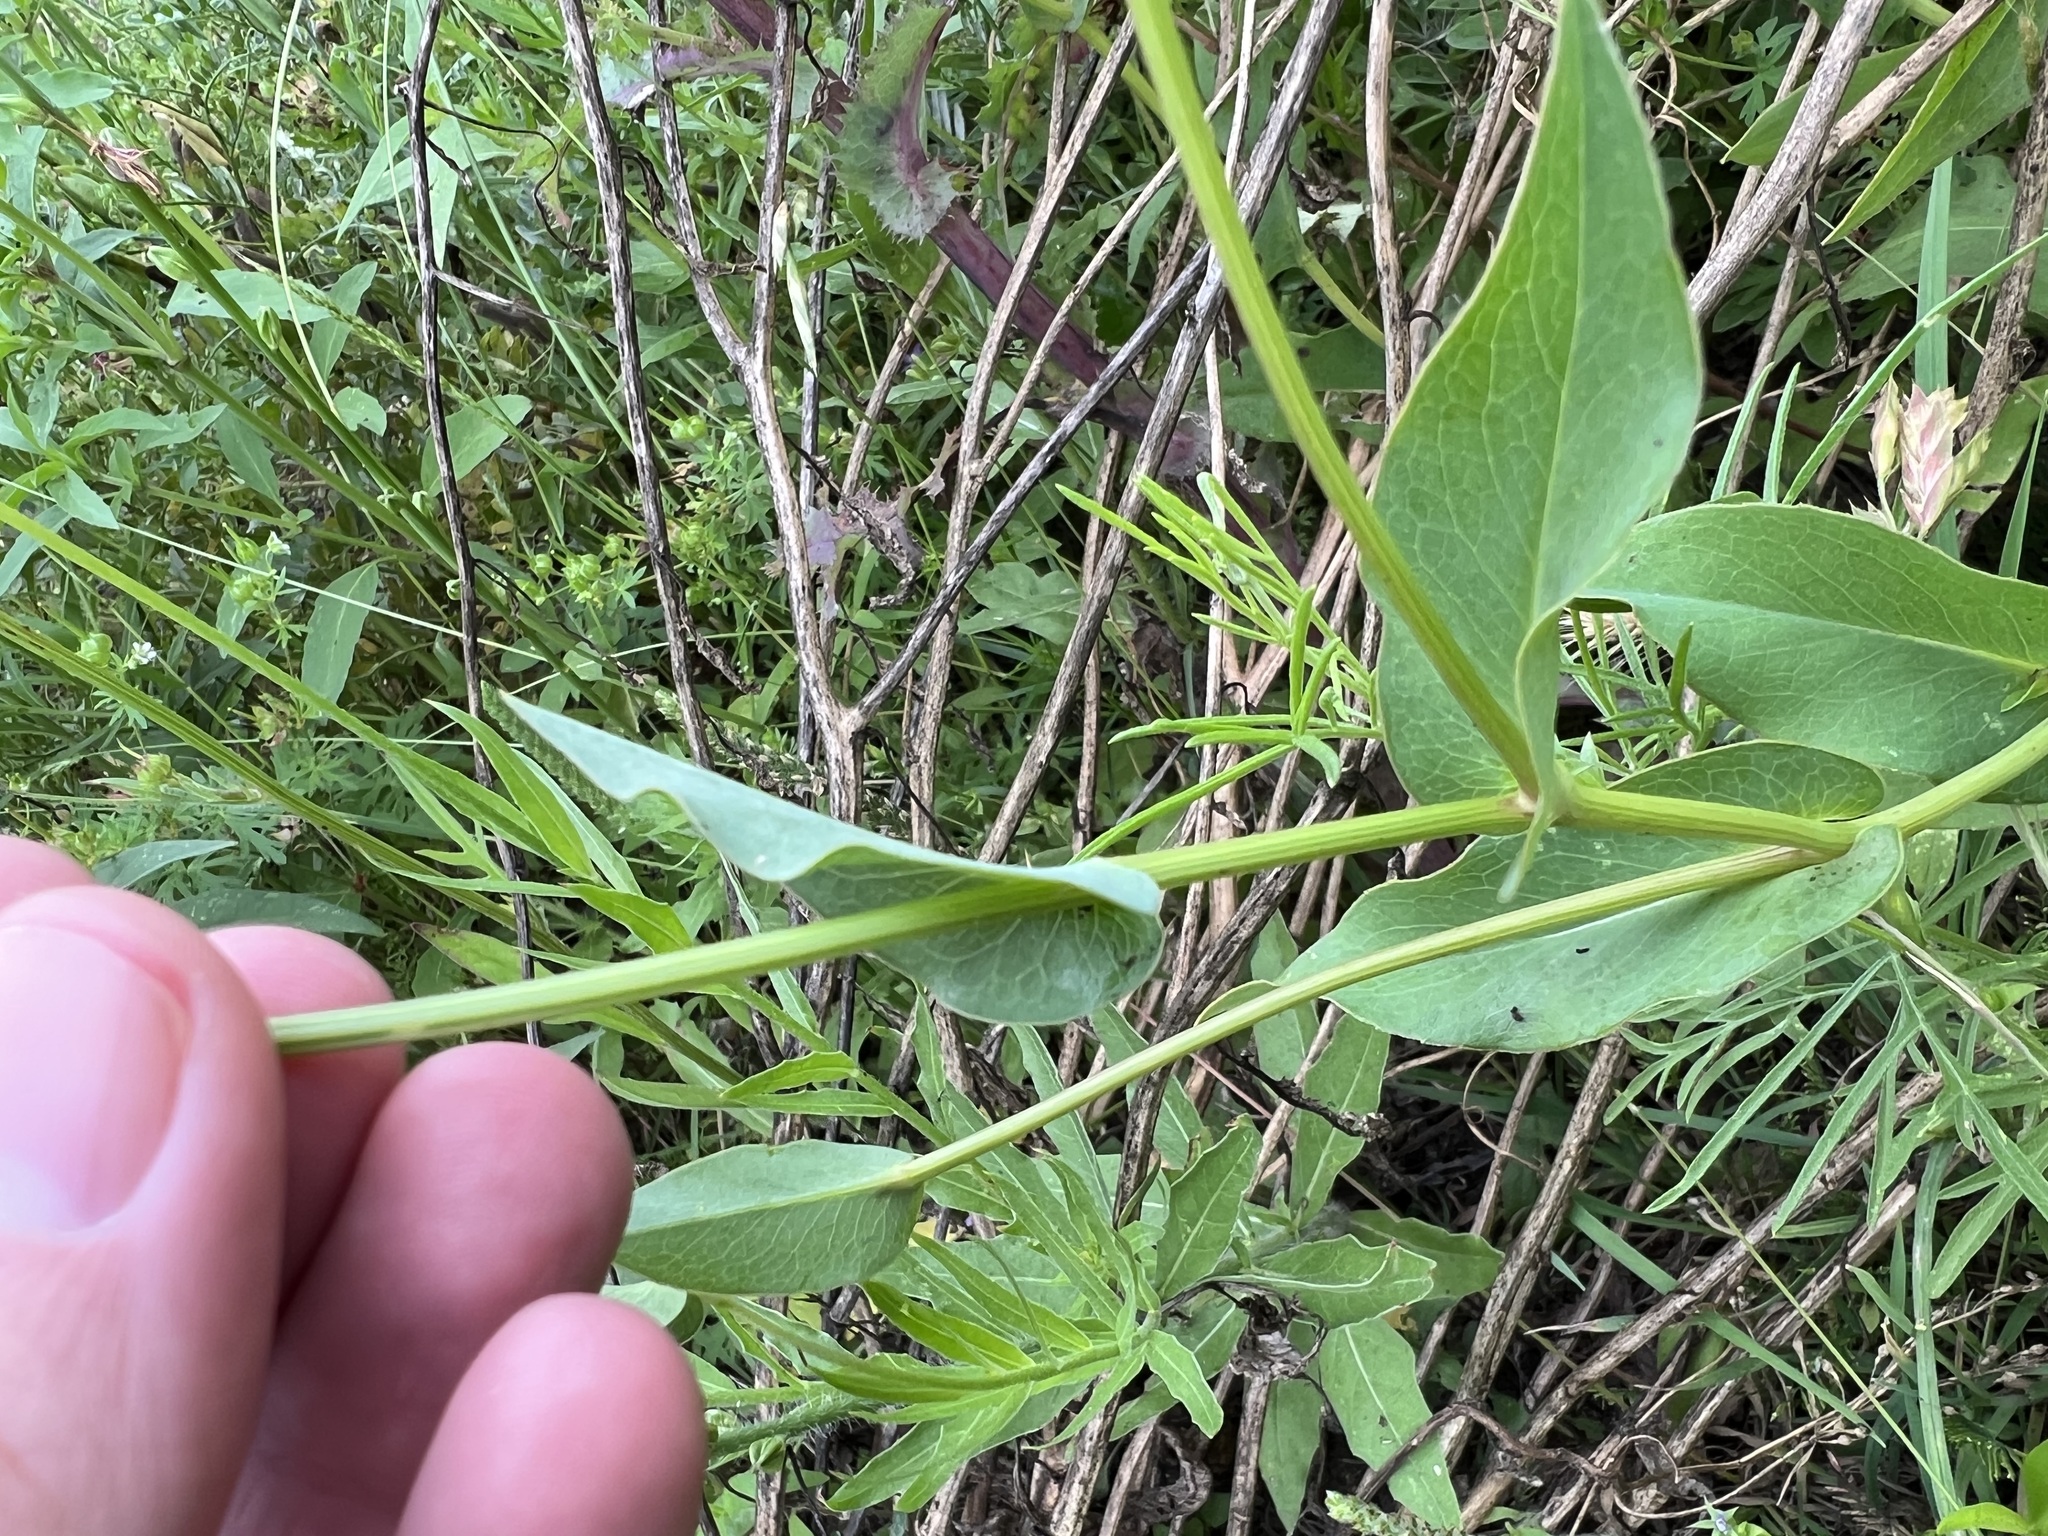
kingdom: Plantae
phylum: Tracheophyta
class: Magnoliopsida
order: Asterales
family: Asteraceae
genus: Rudbeckia
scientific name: Rudbeckia amplexicaulis
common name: Clasping-leaf coneflower
